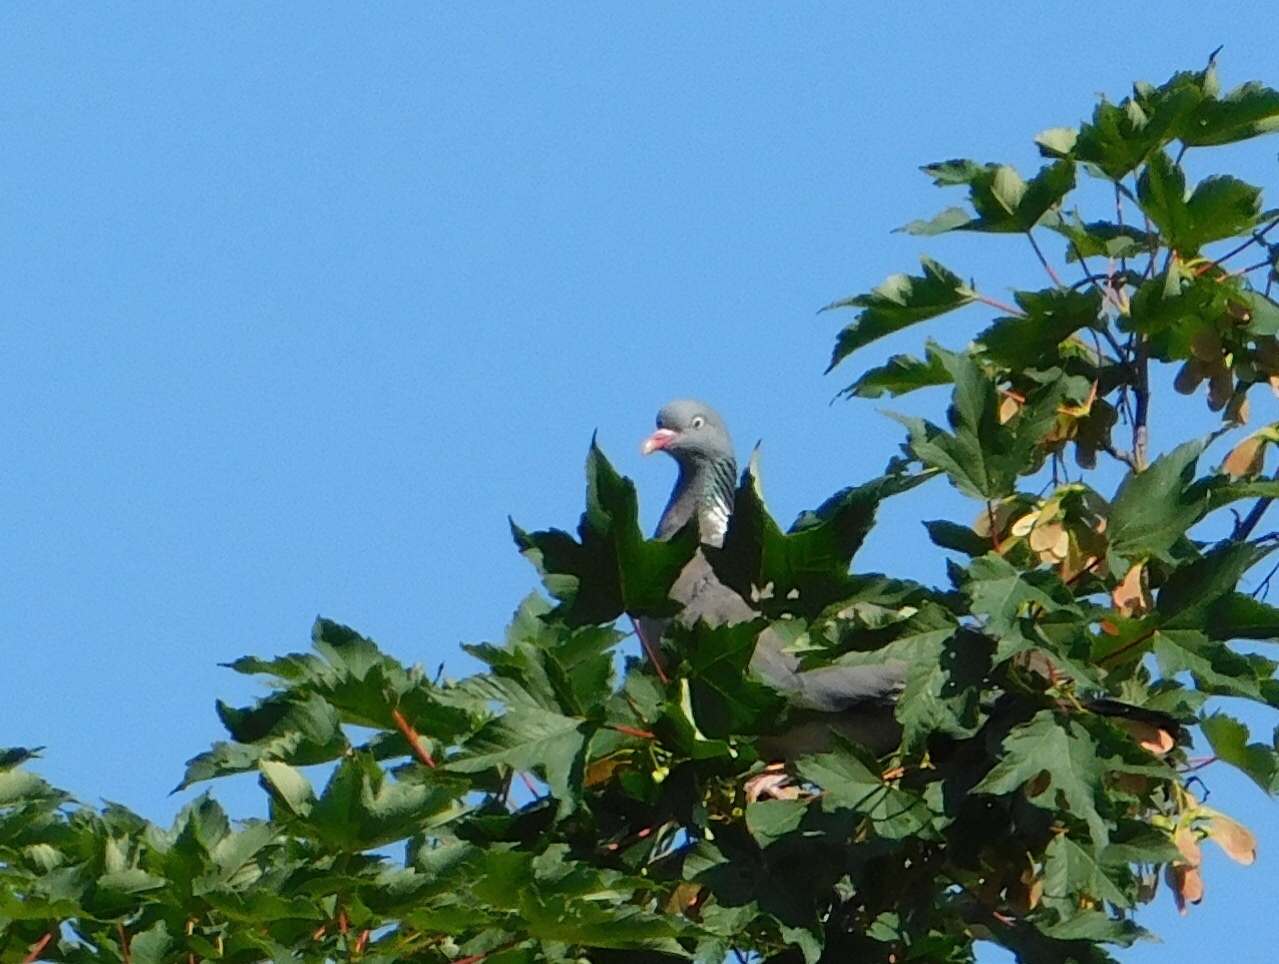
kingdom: Animalia
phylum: Chordata
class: Aves
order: Columbiformes
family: Columbidae
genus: Columba
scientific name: Columba palumbus
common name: Common wood pigeon
